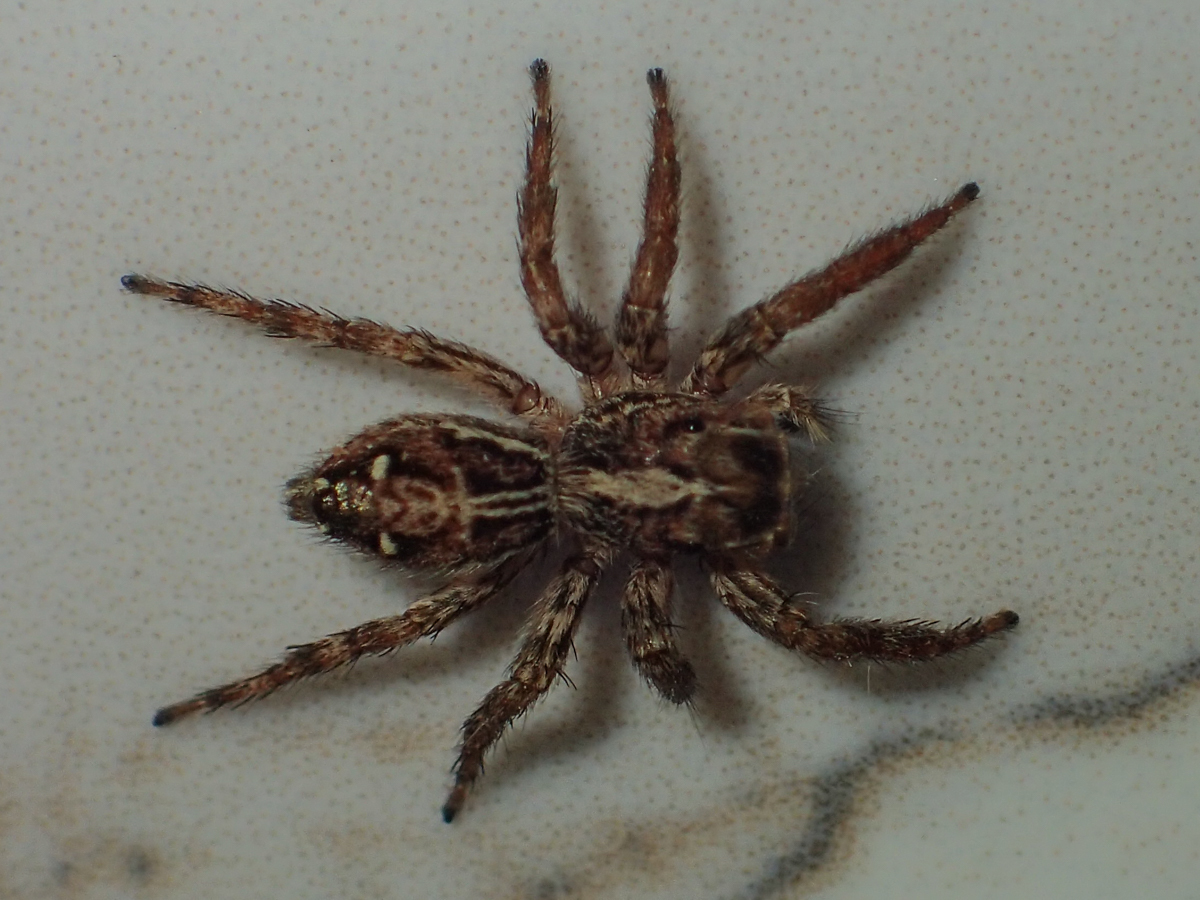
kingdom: Animalia
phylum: Arthropoda
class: Arachnida
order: Araneae
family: Salticidae
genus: Plexippus
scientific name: Plexippus paykulli
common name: Pantropical jumper
